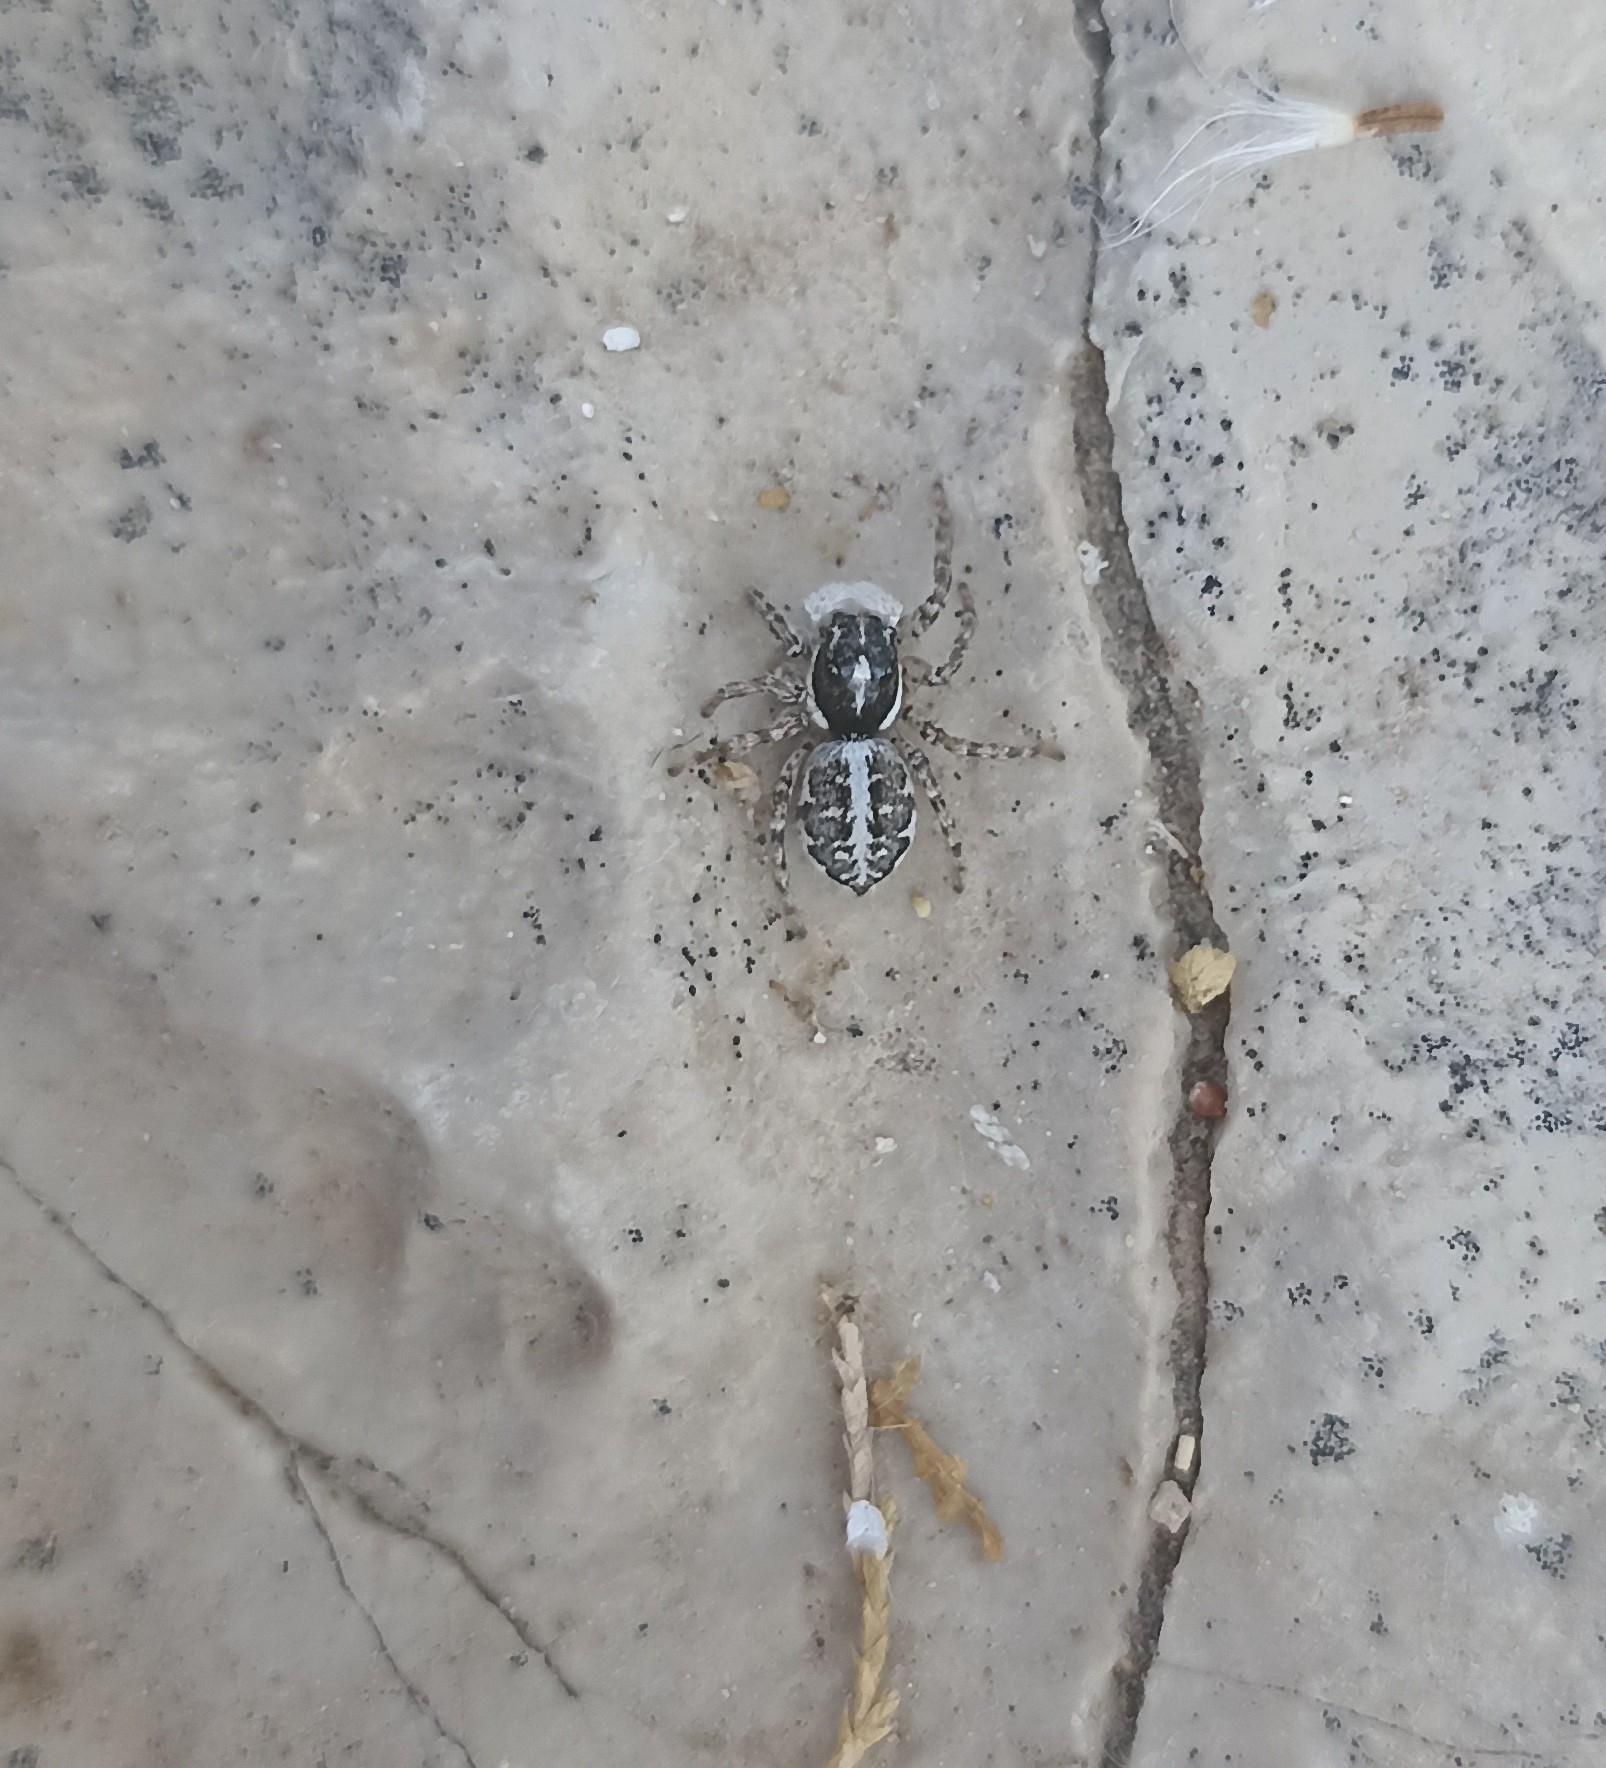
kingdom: Animalia
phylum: Arthropoda
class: Arachnida
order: Araneae
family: Salticidae
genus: Menemerus
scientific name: Menemerus semilimbatus
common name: Jumping spider
